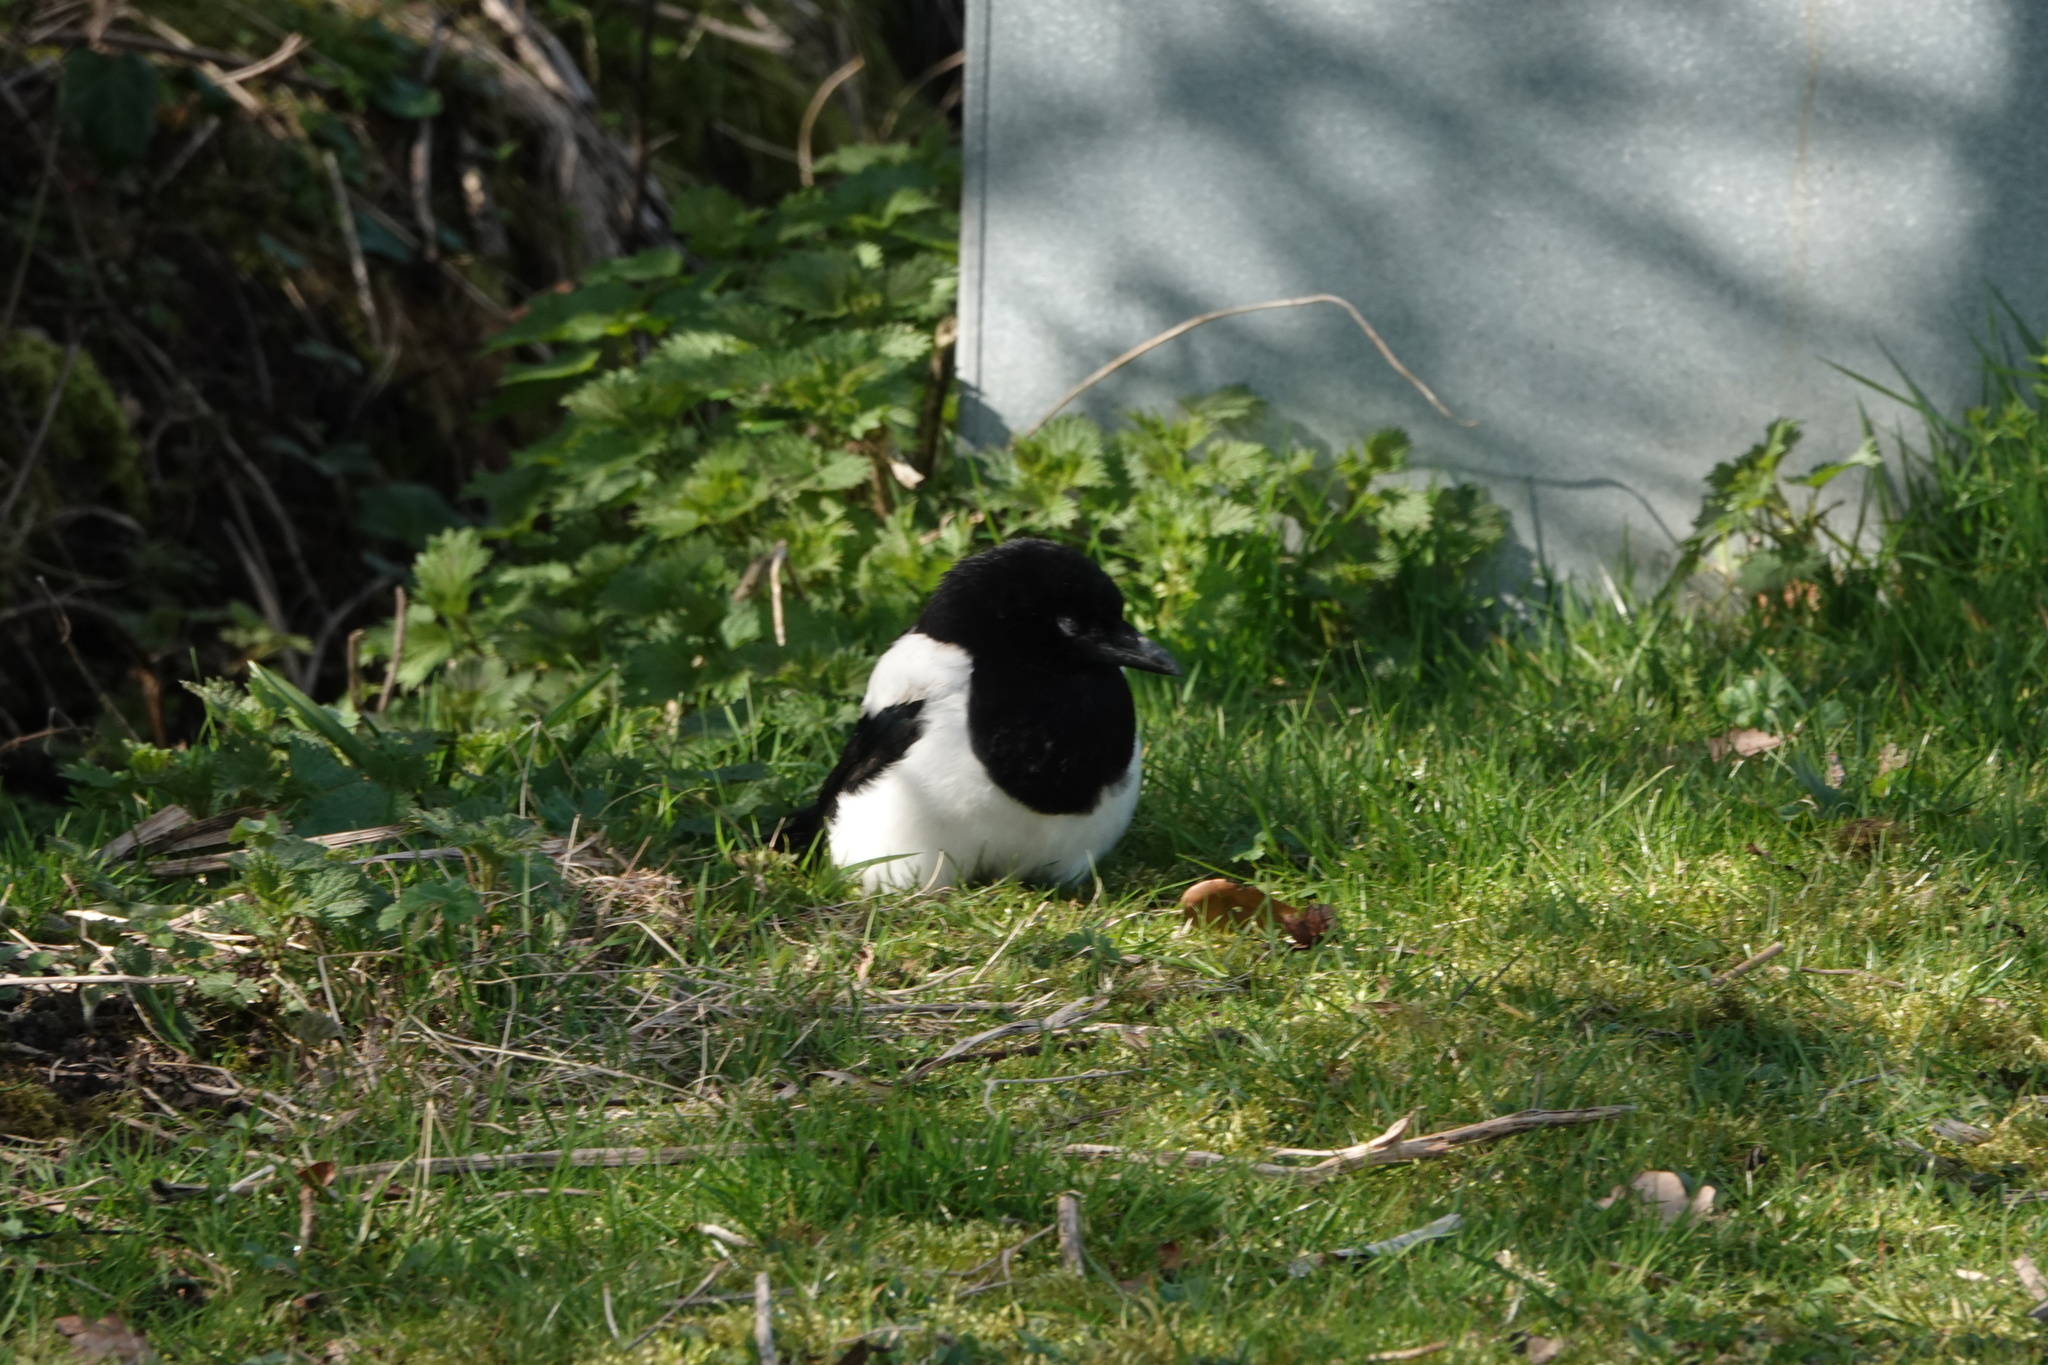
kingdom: Animalia
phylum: Chordata
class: Aves
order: Passeriformes
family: Corvidae
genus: Pica
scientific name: Pica pica
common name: Eurasian magpie
